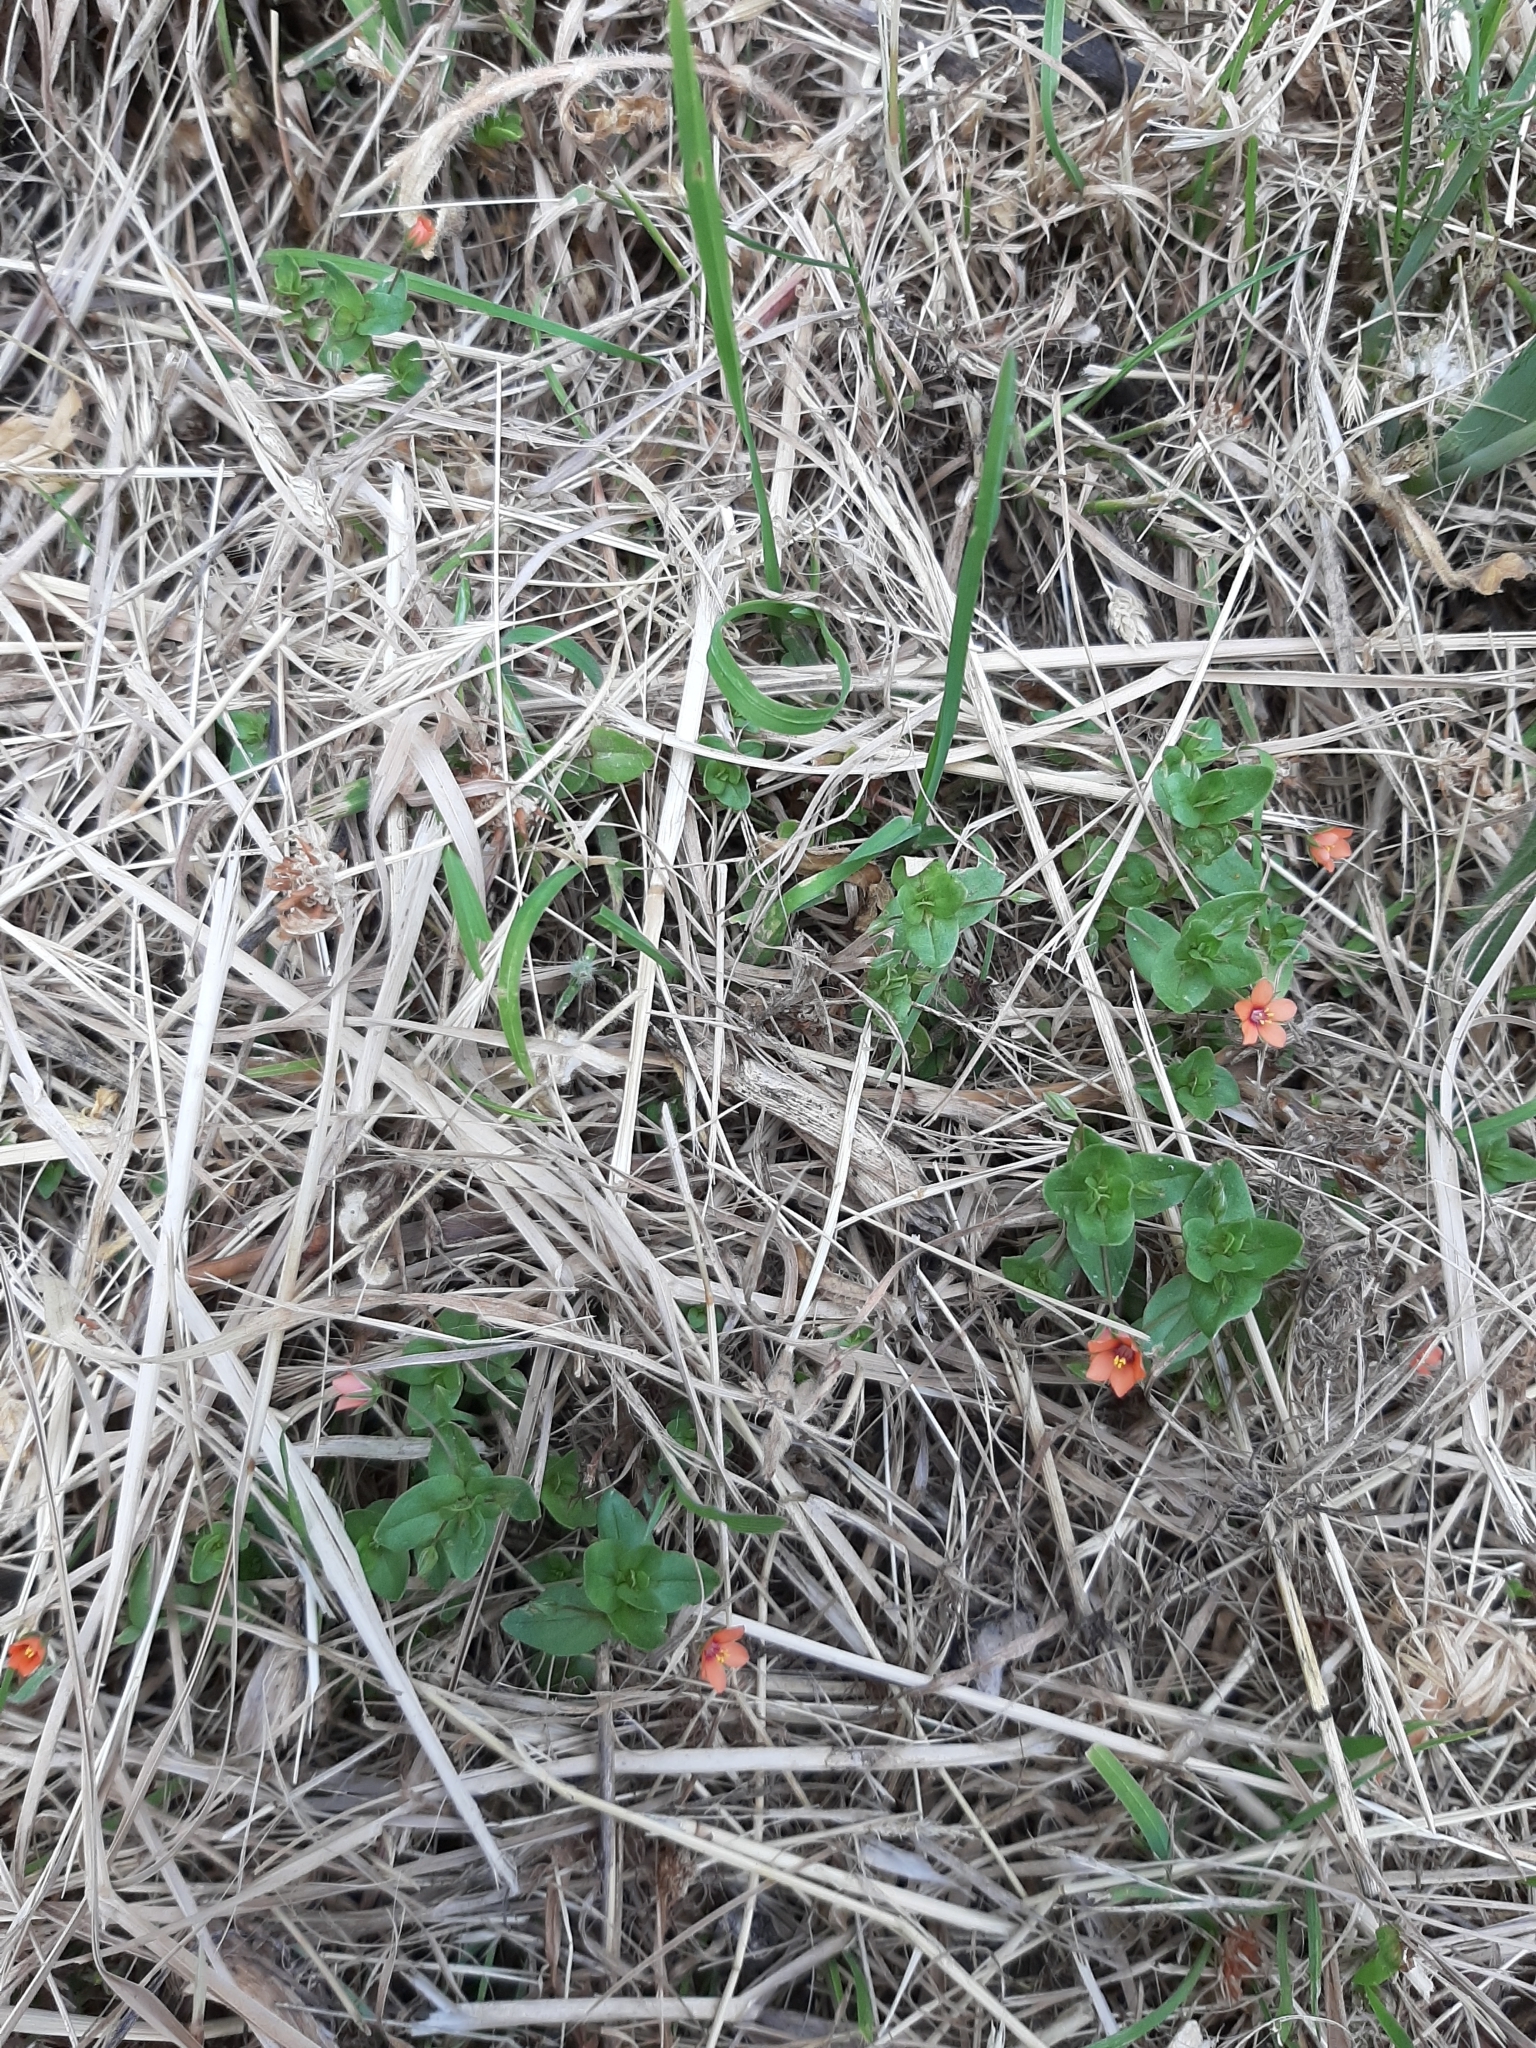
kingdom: Plantae
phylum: Tracheophyta
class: Magnoliopsida
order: Ericales
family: Primulaceae
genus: Lysimachia
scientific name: Lysimachia arvensis
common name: Scarlet pimpernel
